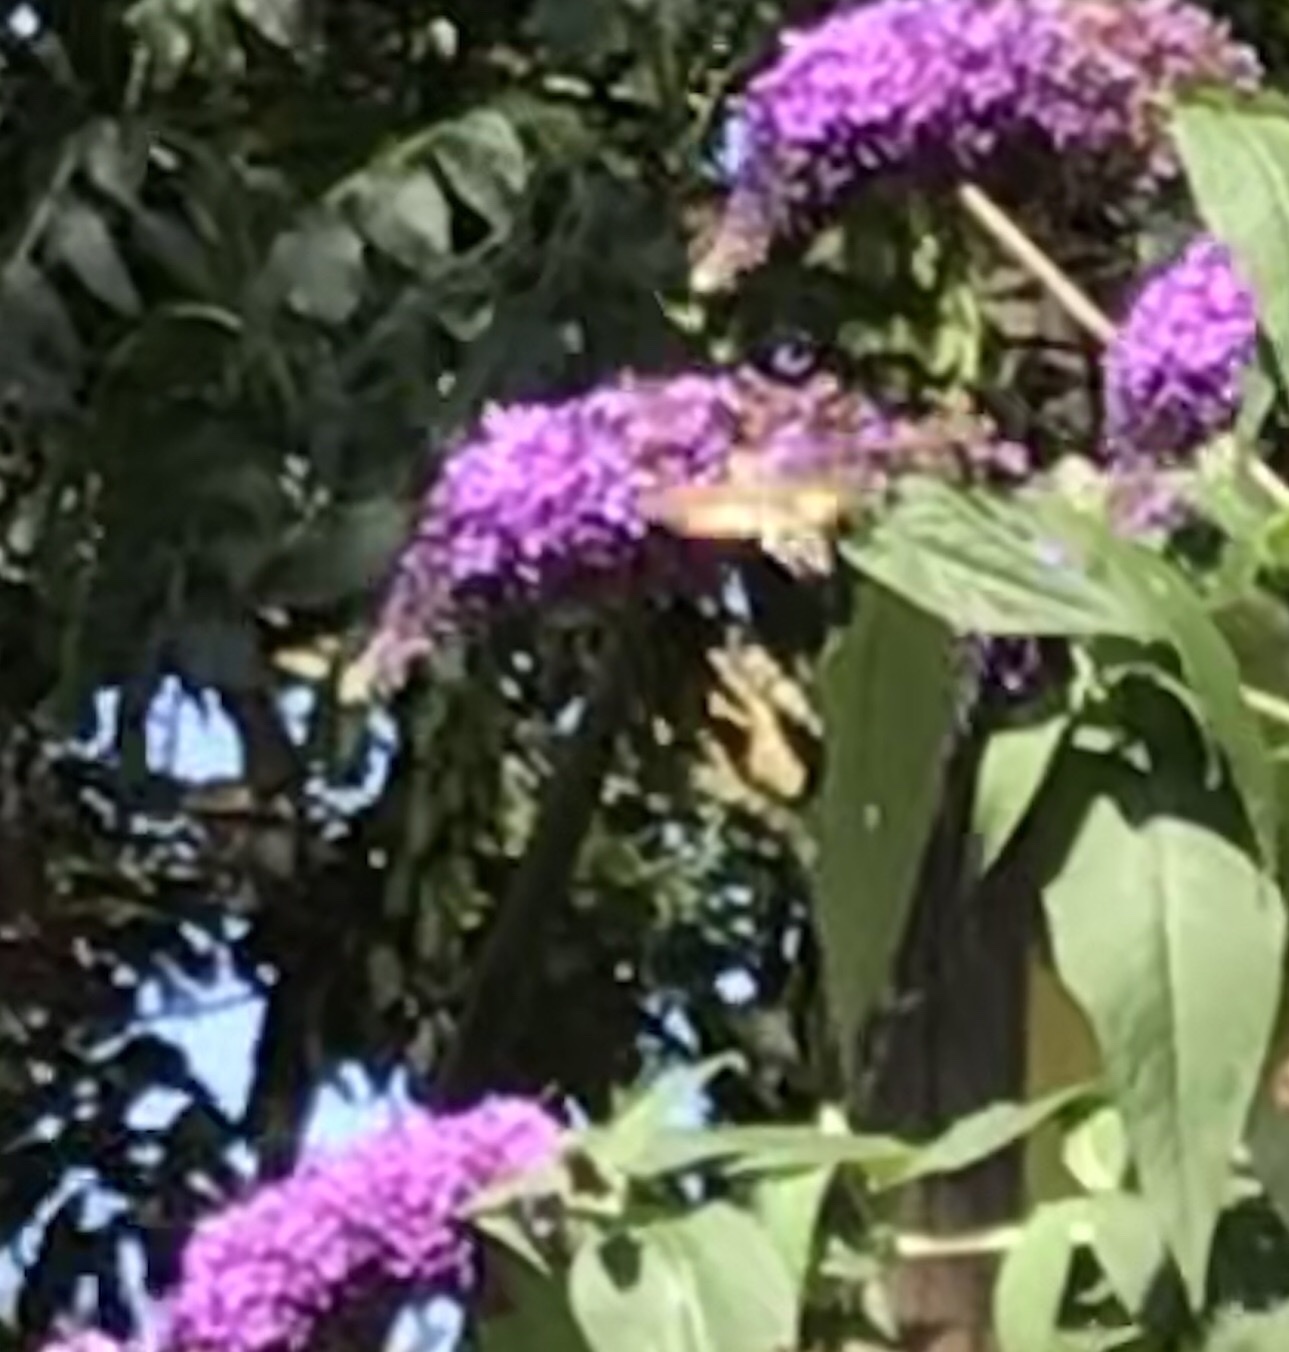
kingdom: Animalia
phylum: Arthropoda
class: Insecta
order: Lepidoptera
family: Sphingidae
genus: Macroglossum
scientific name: Macroglossum stellatarum
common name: Humming-bird hawk-moth
